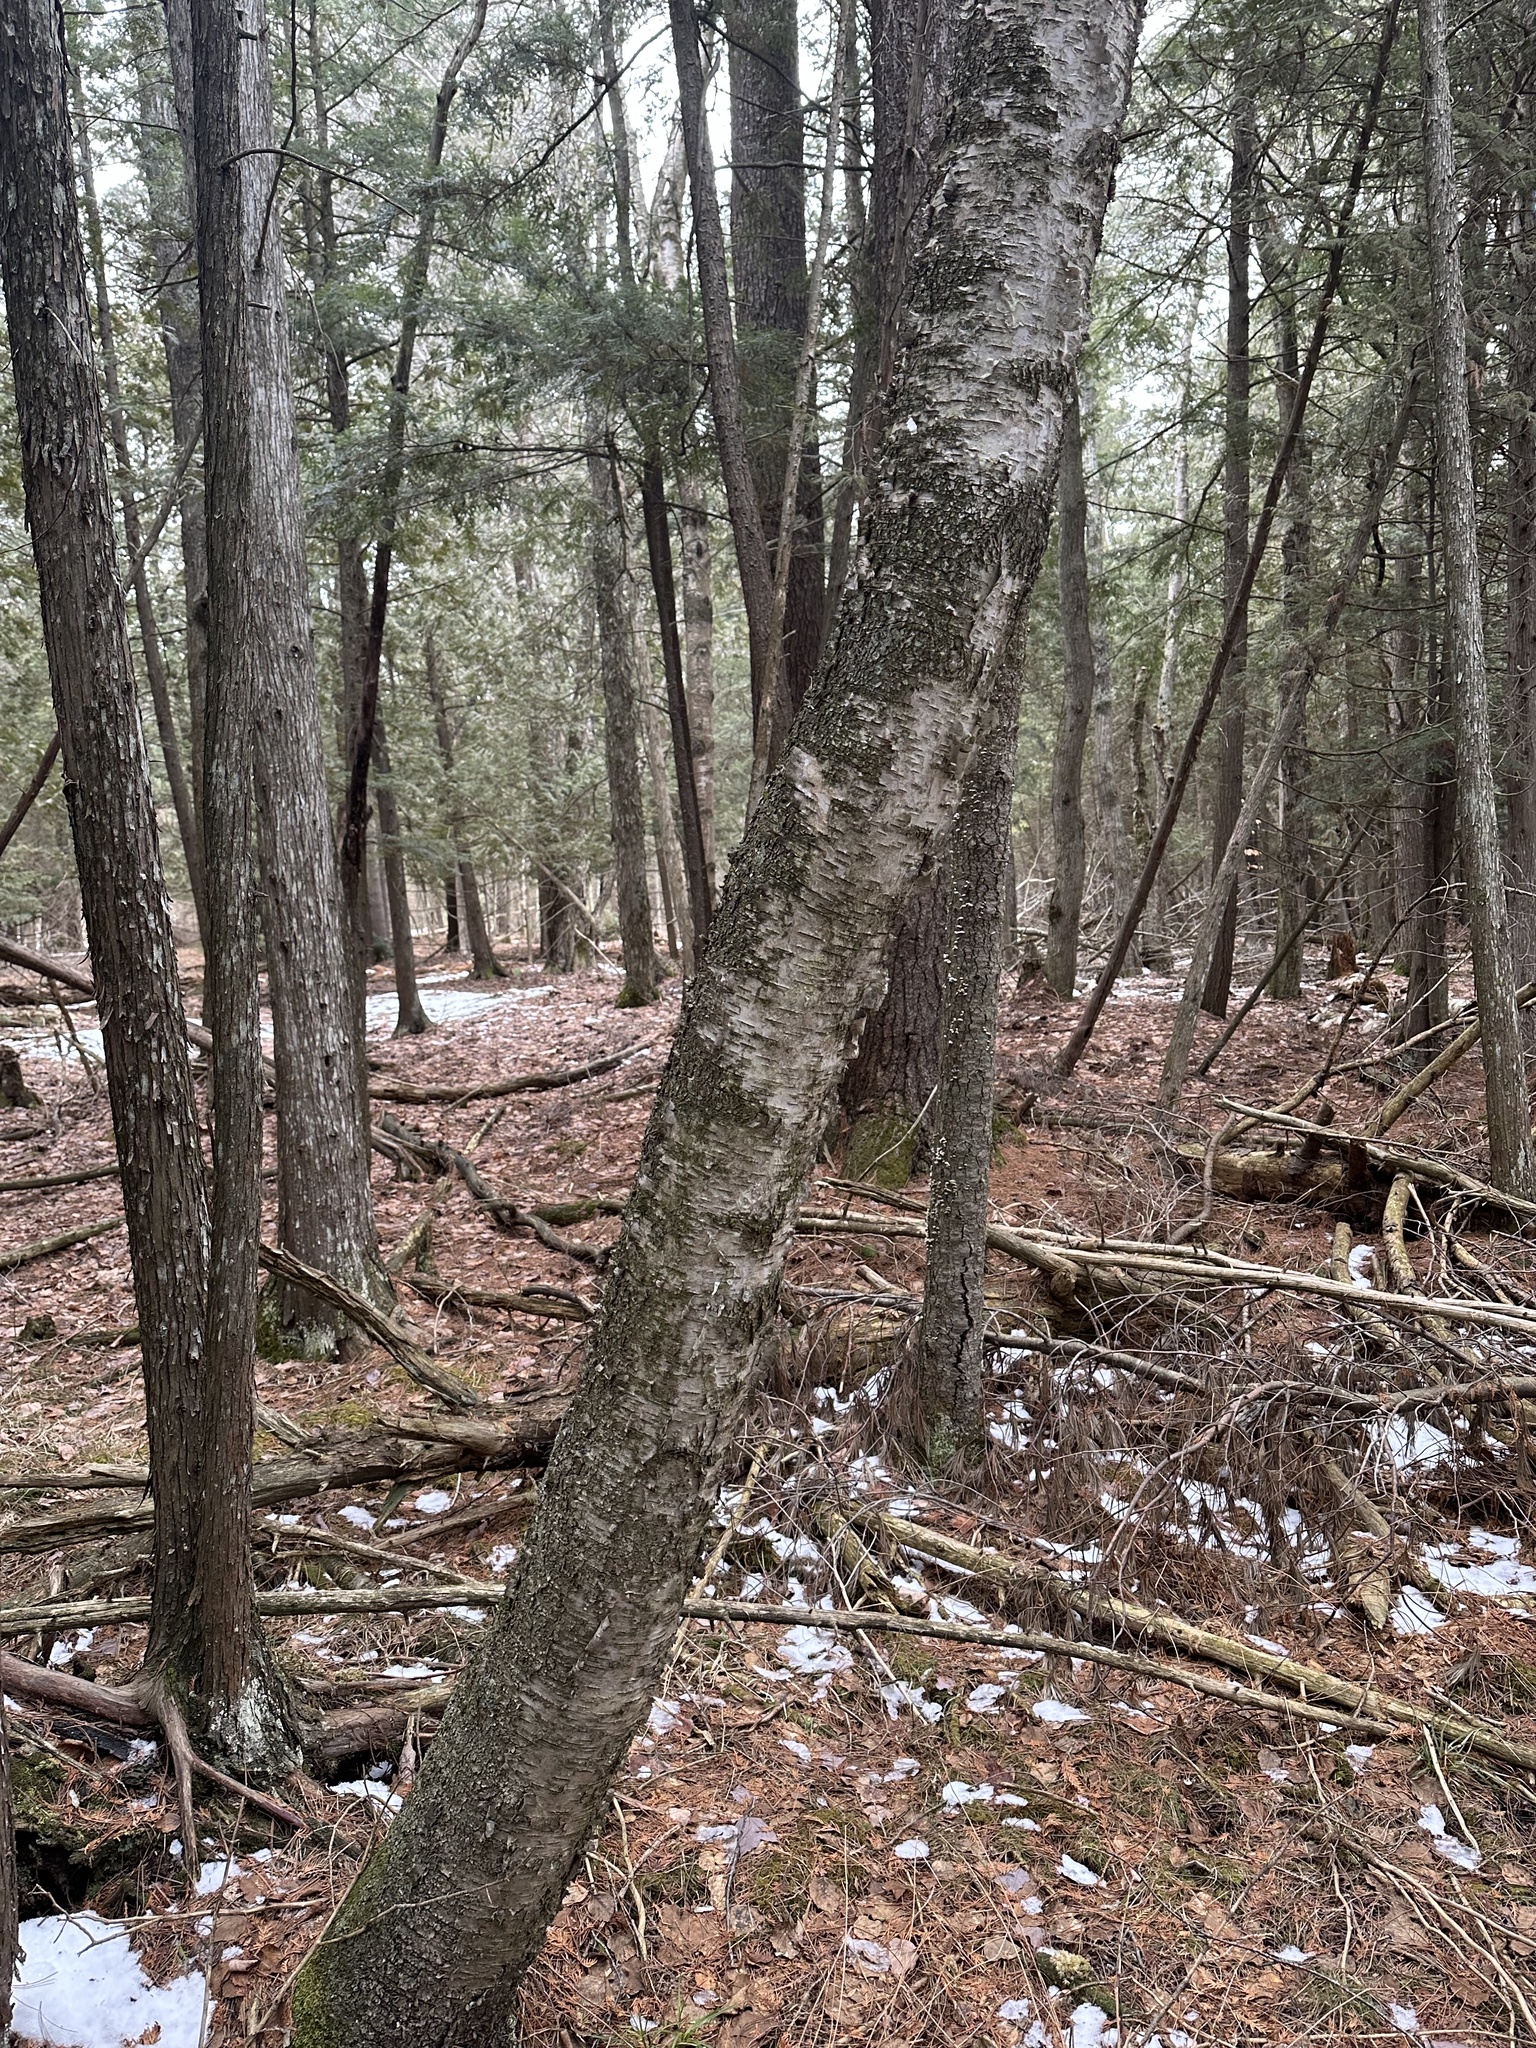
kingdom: Plantae
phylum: Tracheophyta
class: Magnoliopsida
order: Fagales
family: Betulaceae
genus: Betula
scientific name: Betula papyrifera
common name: Paper birch
